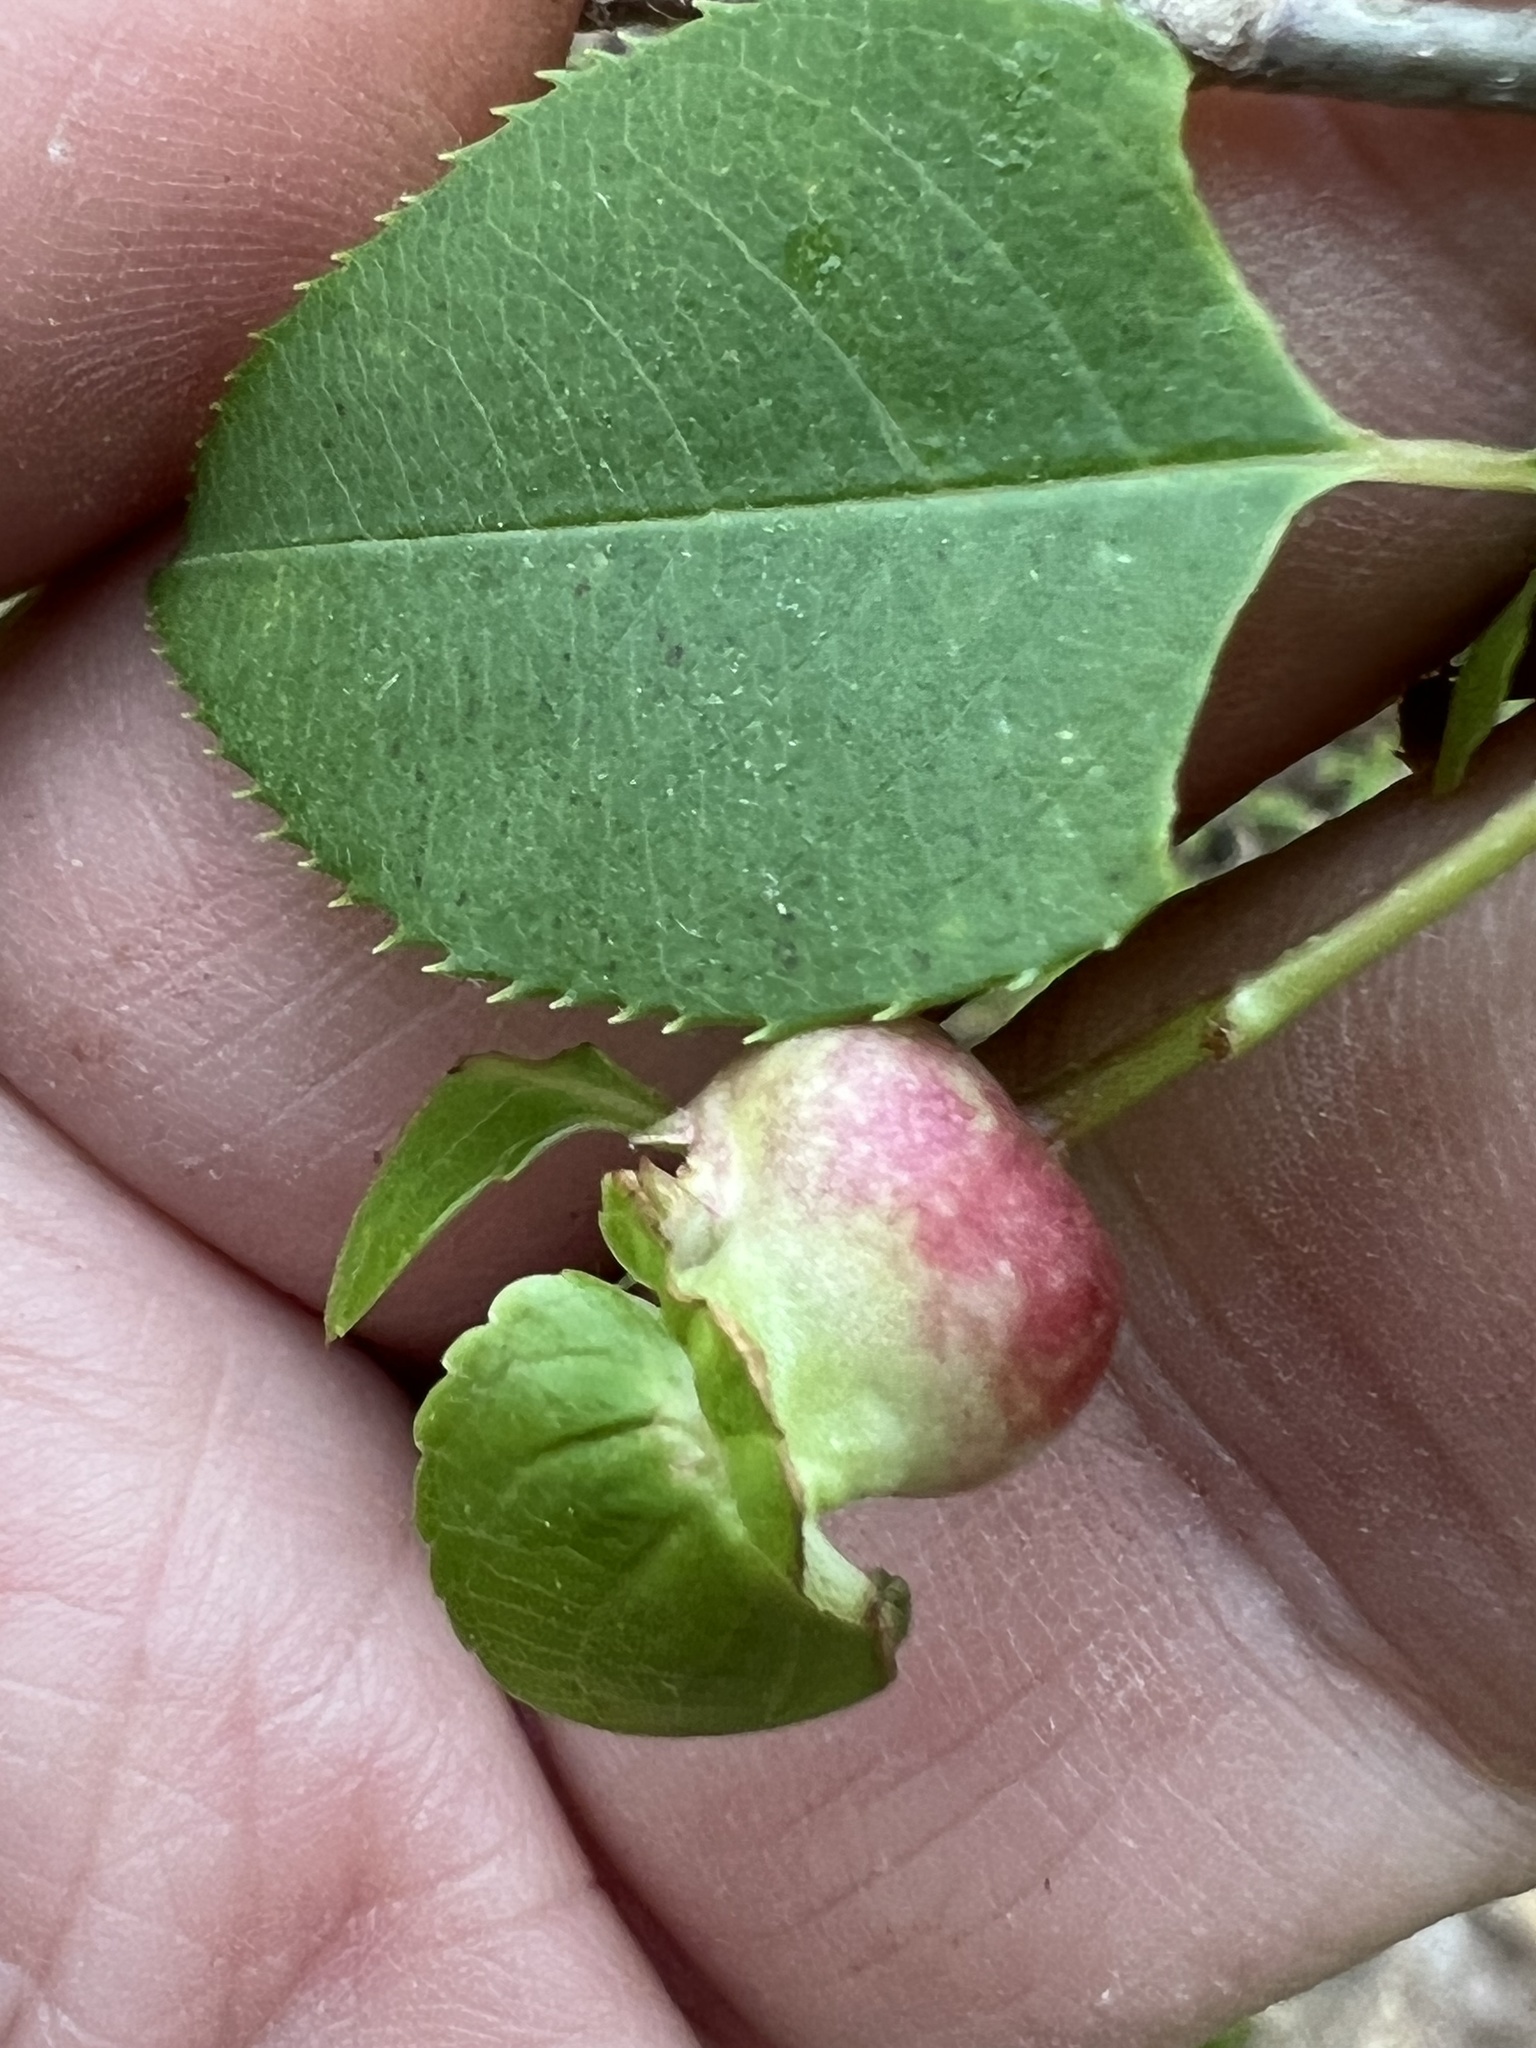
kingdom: Animalia
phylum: Arthropoda
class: Insecta
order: Diptera
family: Cecidomyiidae
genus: Contarinia
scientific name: Contarinia cerasiserotinae
